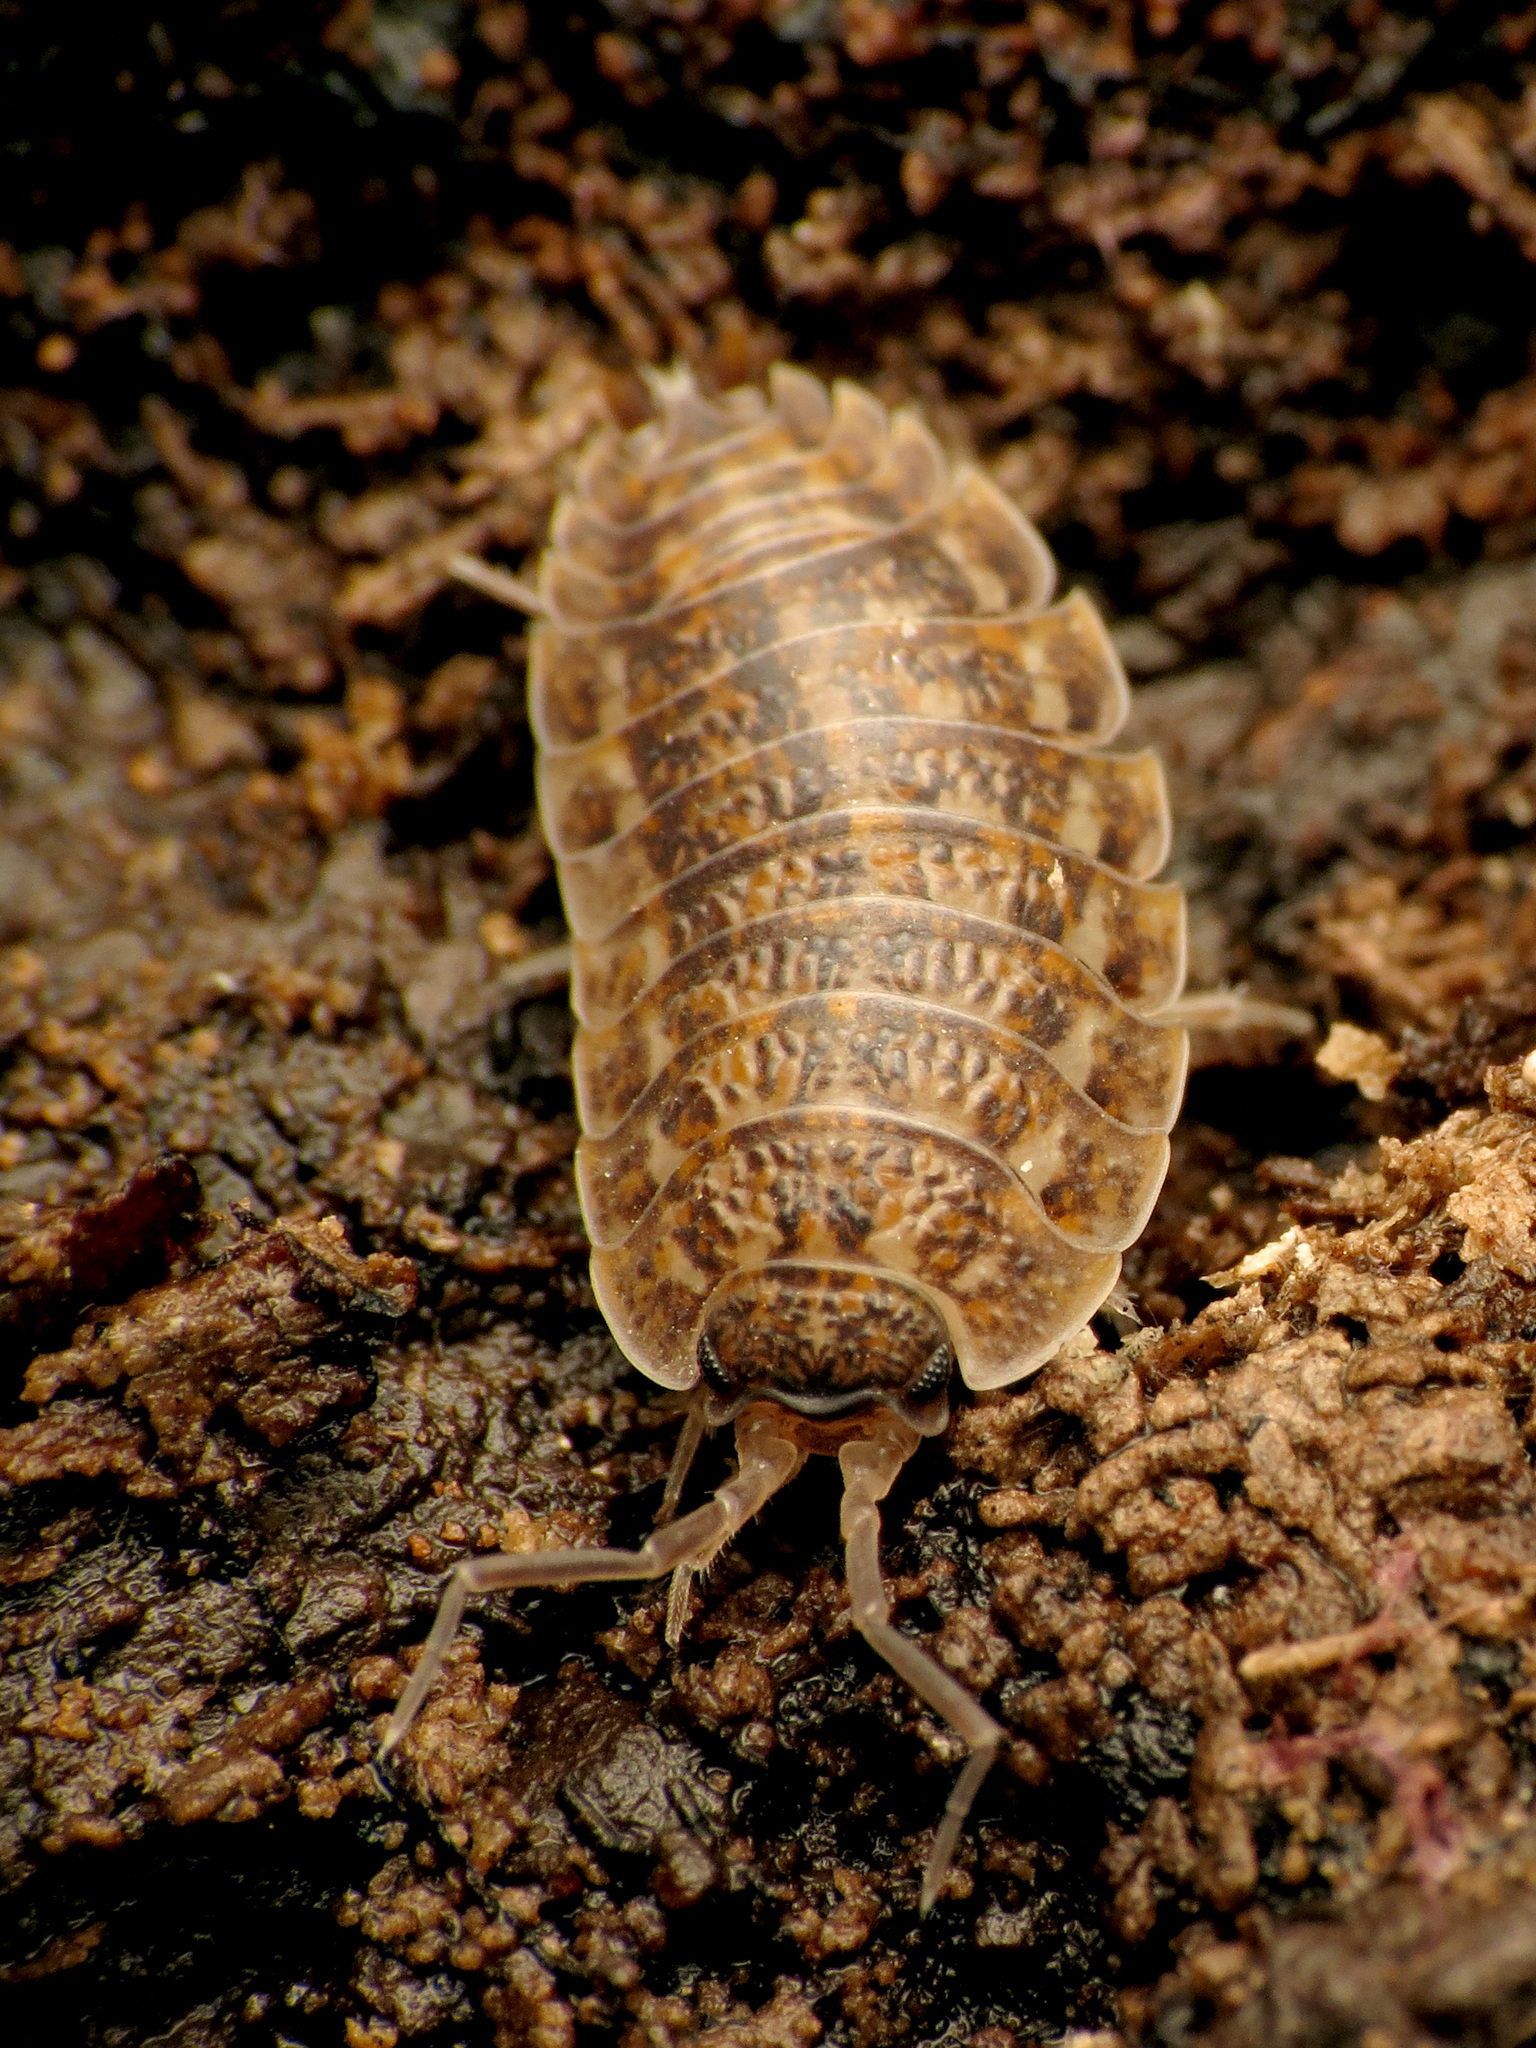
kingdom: Animalia
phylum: Arthropoda
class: Malacostraca
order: Isopoda
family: Trachelipodidae
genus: Trachelipus
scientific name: Trachelipus rathkii
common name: Isopod
